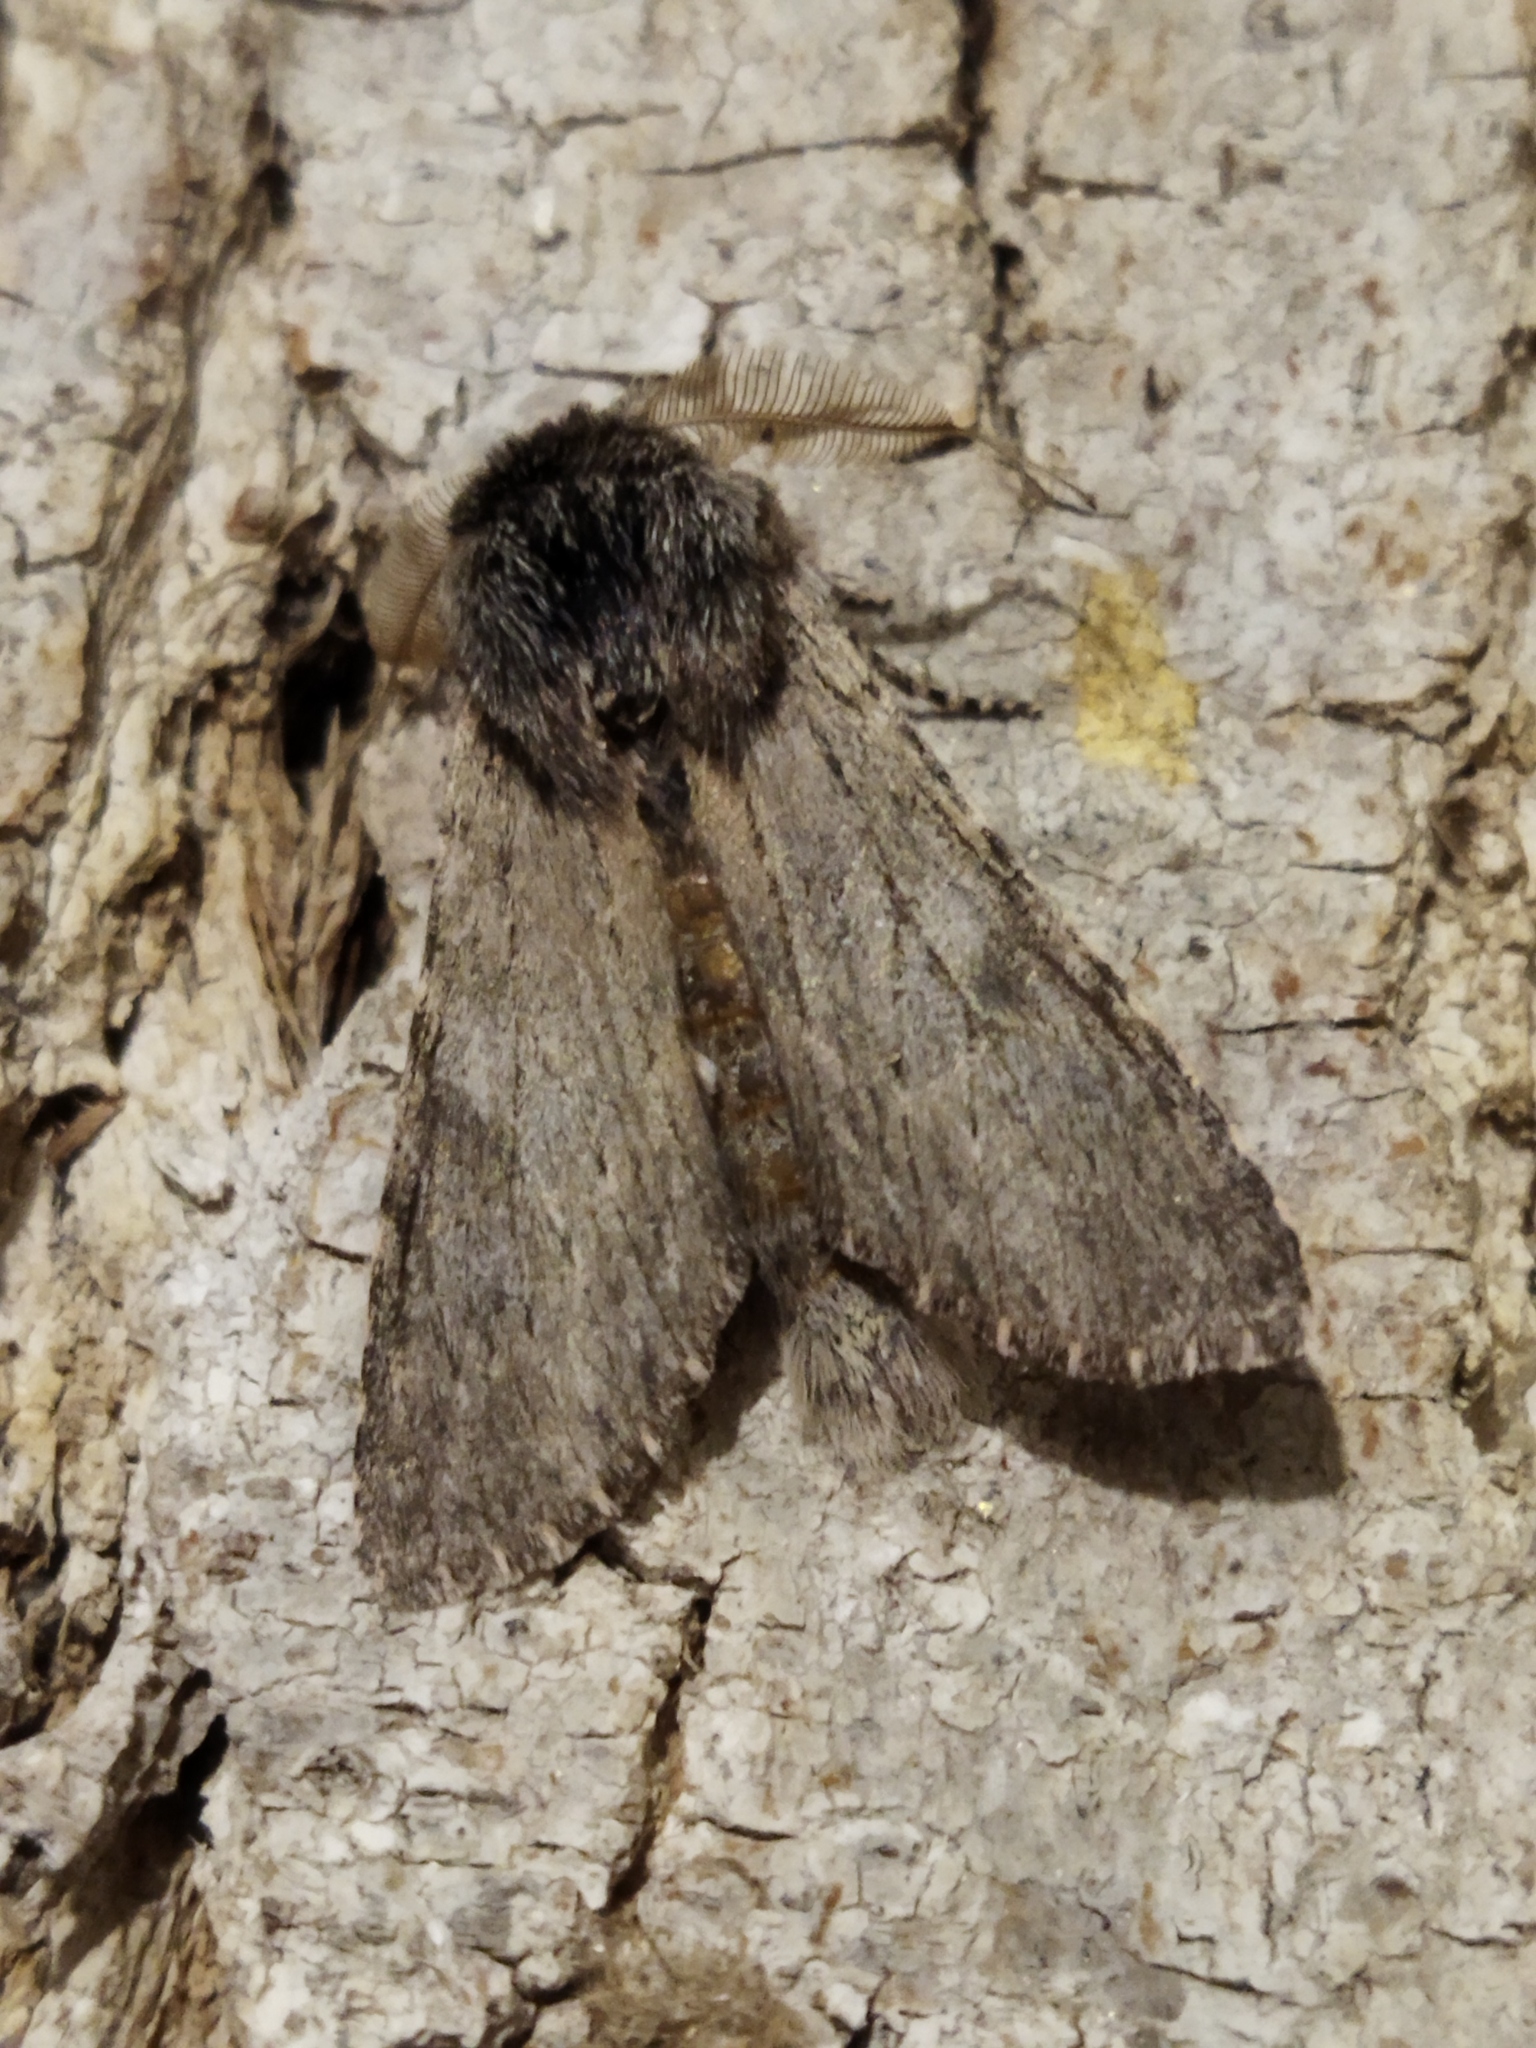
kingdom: Animalia
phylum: Arthropoda
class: Insecta
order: Lepidoptera
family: Notodontidae
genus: Dicranura
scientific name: Dicranura ulmi
